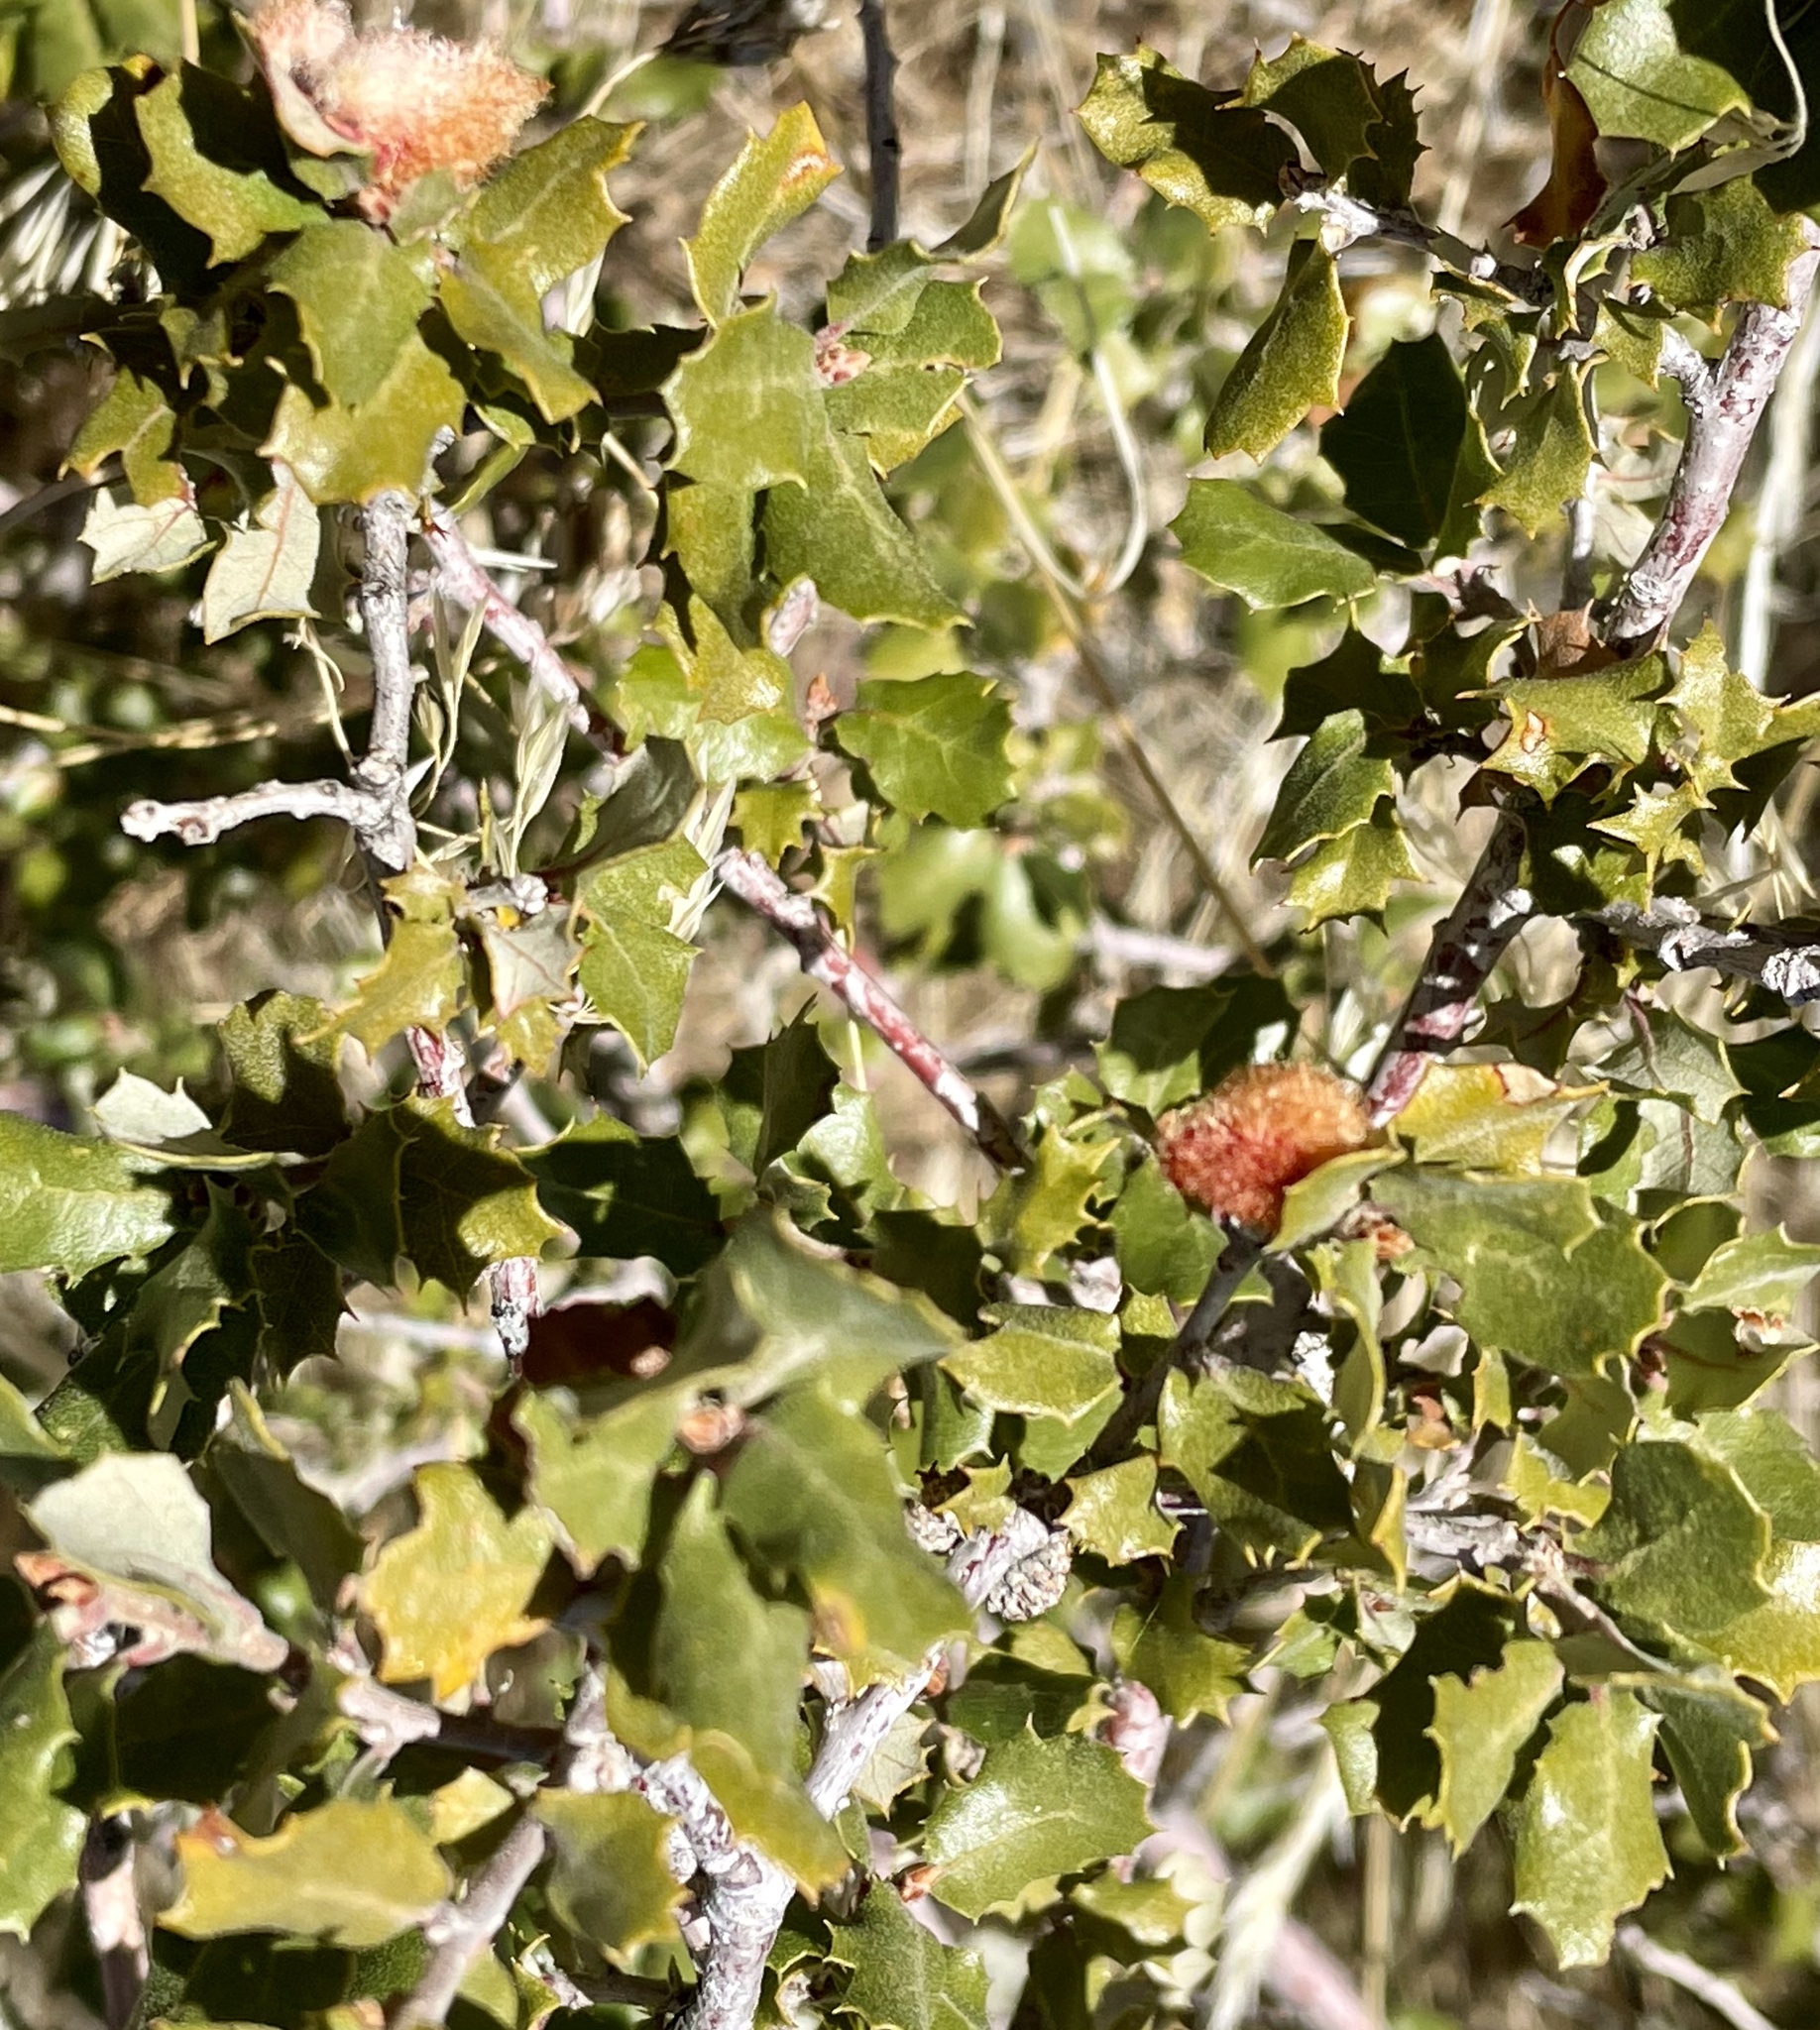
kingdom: Plantae
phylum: Tracheophyta
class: Magnoliopsida
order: Fagales
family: Fagaceae
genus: Quercus
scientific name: Quercus cornelius-mulleri
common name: Muller oak
